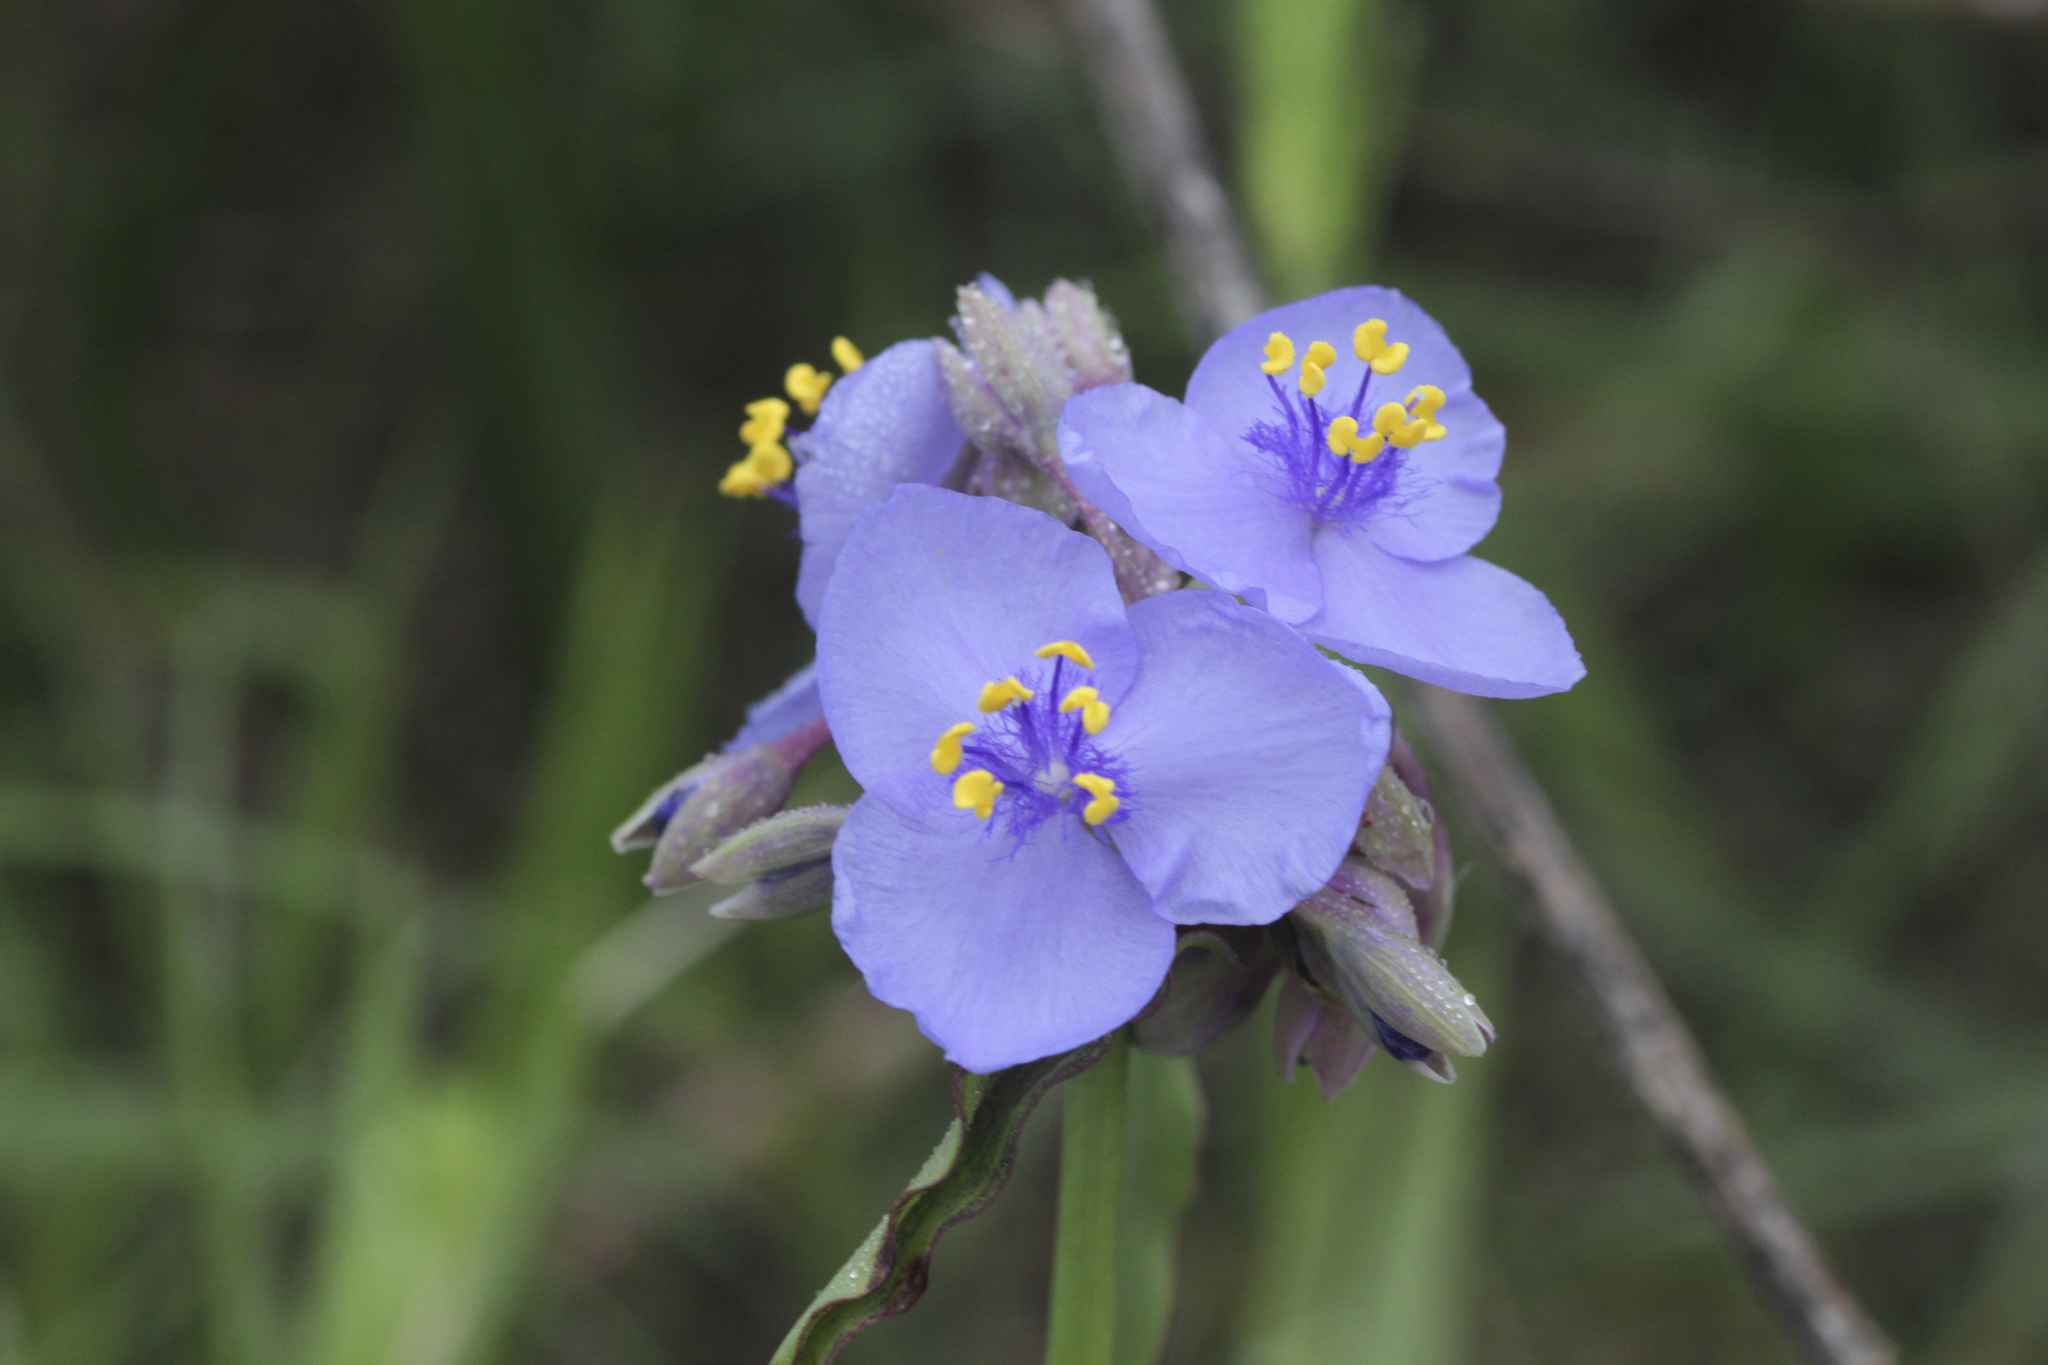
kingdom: Plantae
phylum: Tracheophyta
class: Liliopsida
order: Commelinales
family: Commelinaceae
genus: Tradescantia
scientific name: Tradescantia ohiensis
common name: Ohio spiderwort
